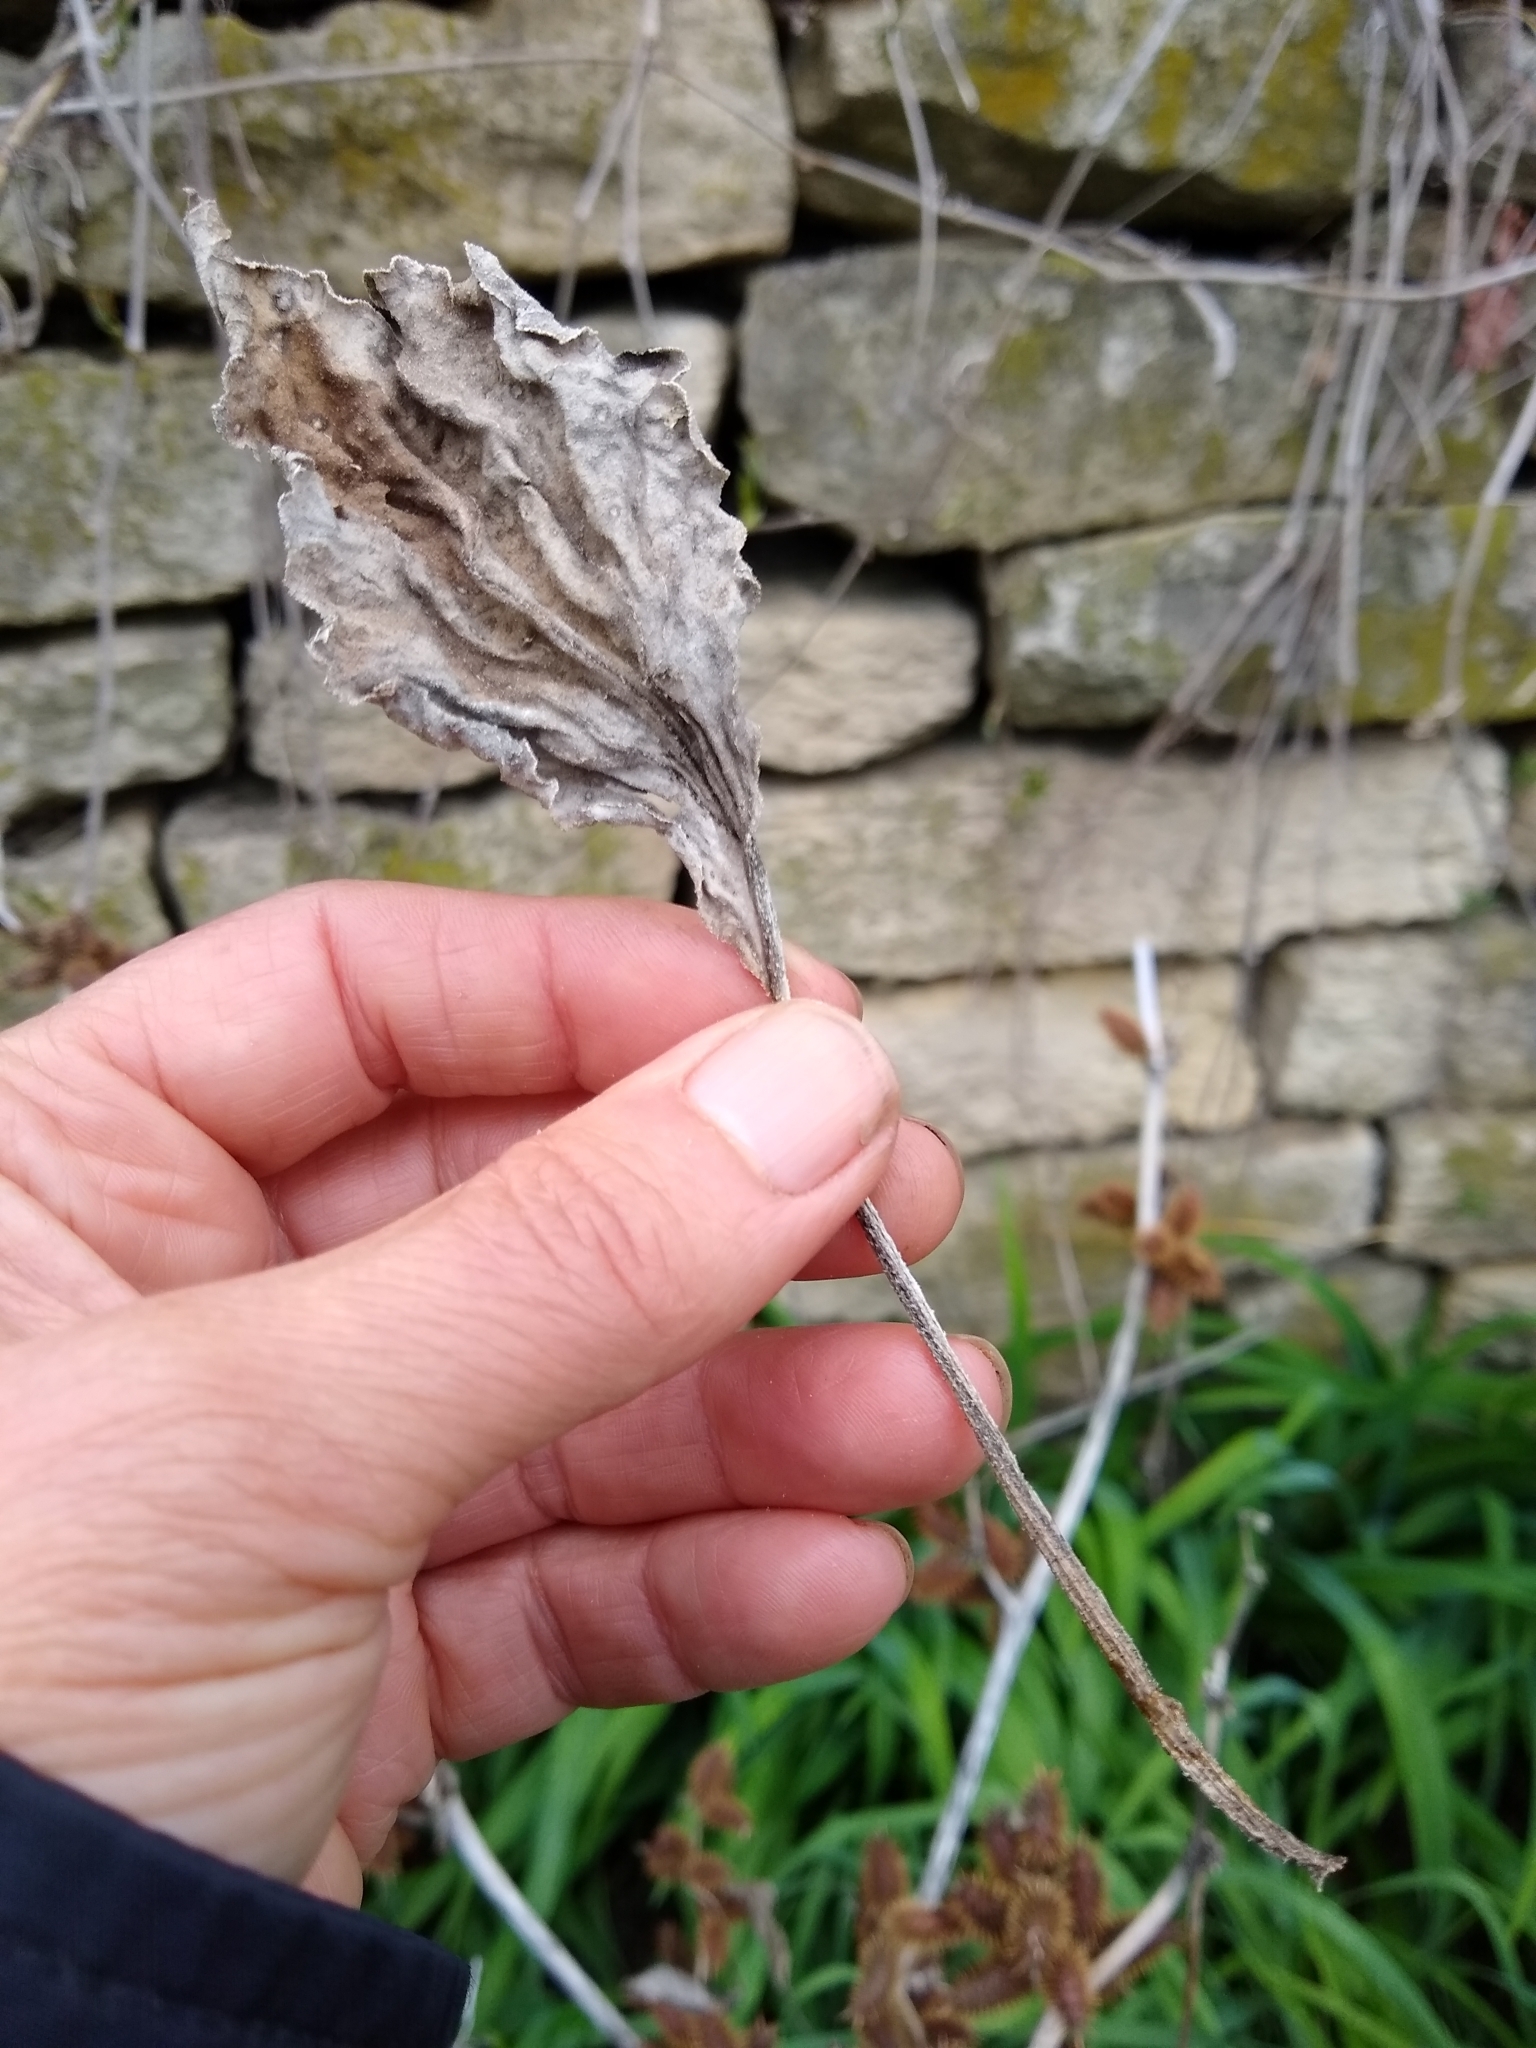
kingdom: Plantae
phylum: Tracheophyta
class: Magnoliopsida
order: Asterales
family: Asteraceae
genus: Xanthium
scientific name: Xanthium strumarium
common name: Rough cocklebur
